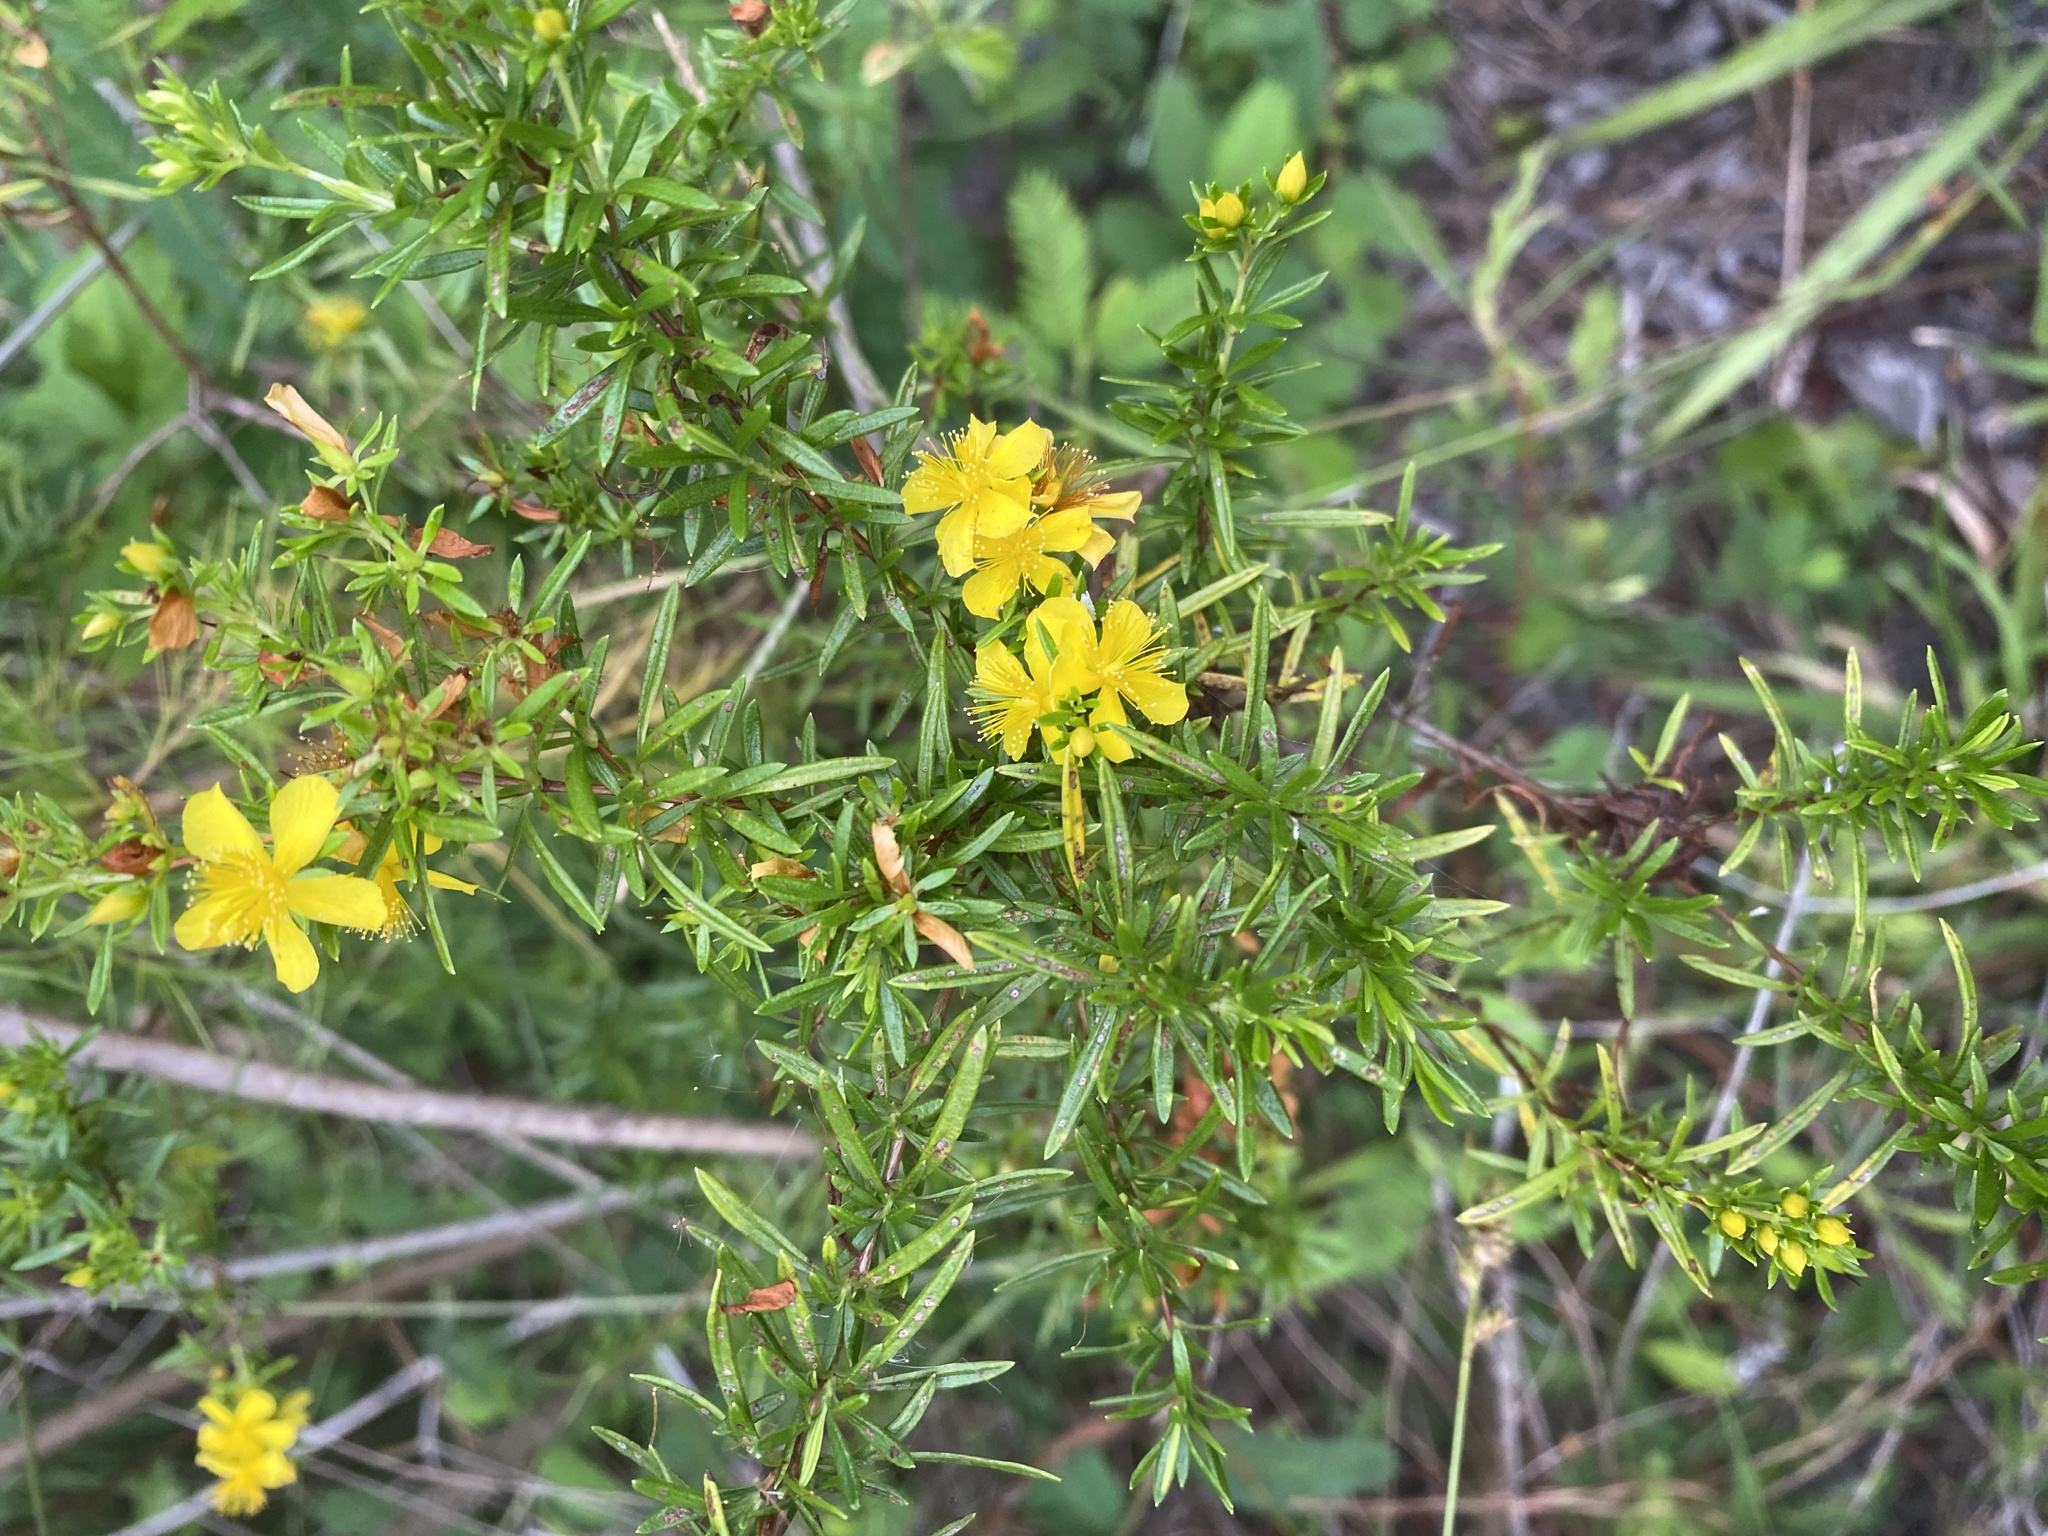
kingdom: Plantae
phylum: Tracheophyta
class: Magnoliopsida
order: Malpighiales
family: Hypericaceae
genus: Hypericum
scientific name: Hypericum galioides
